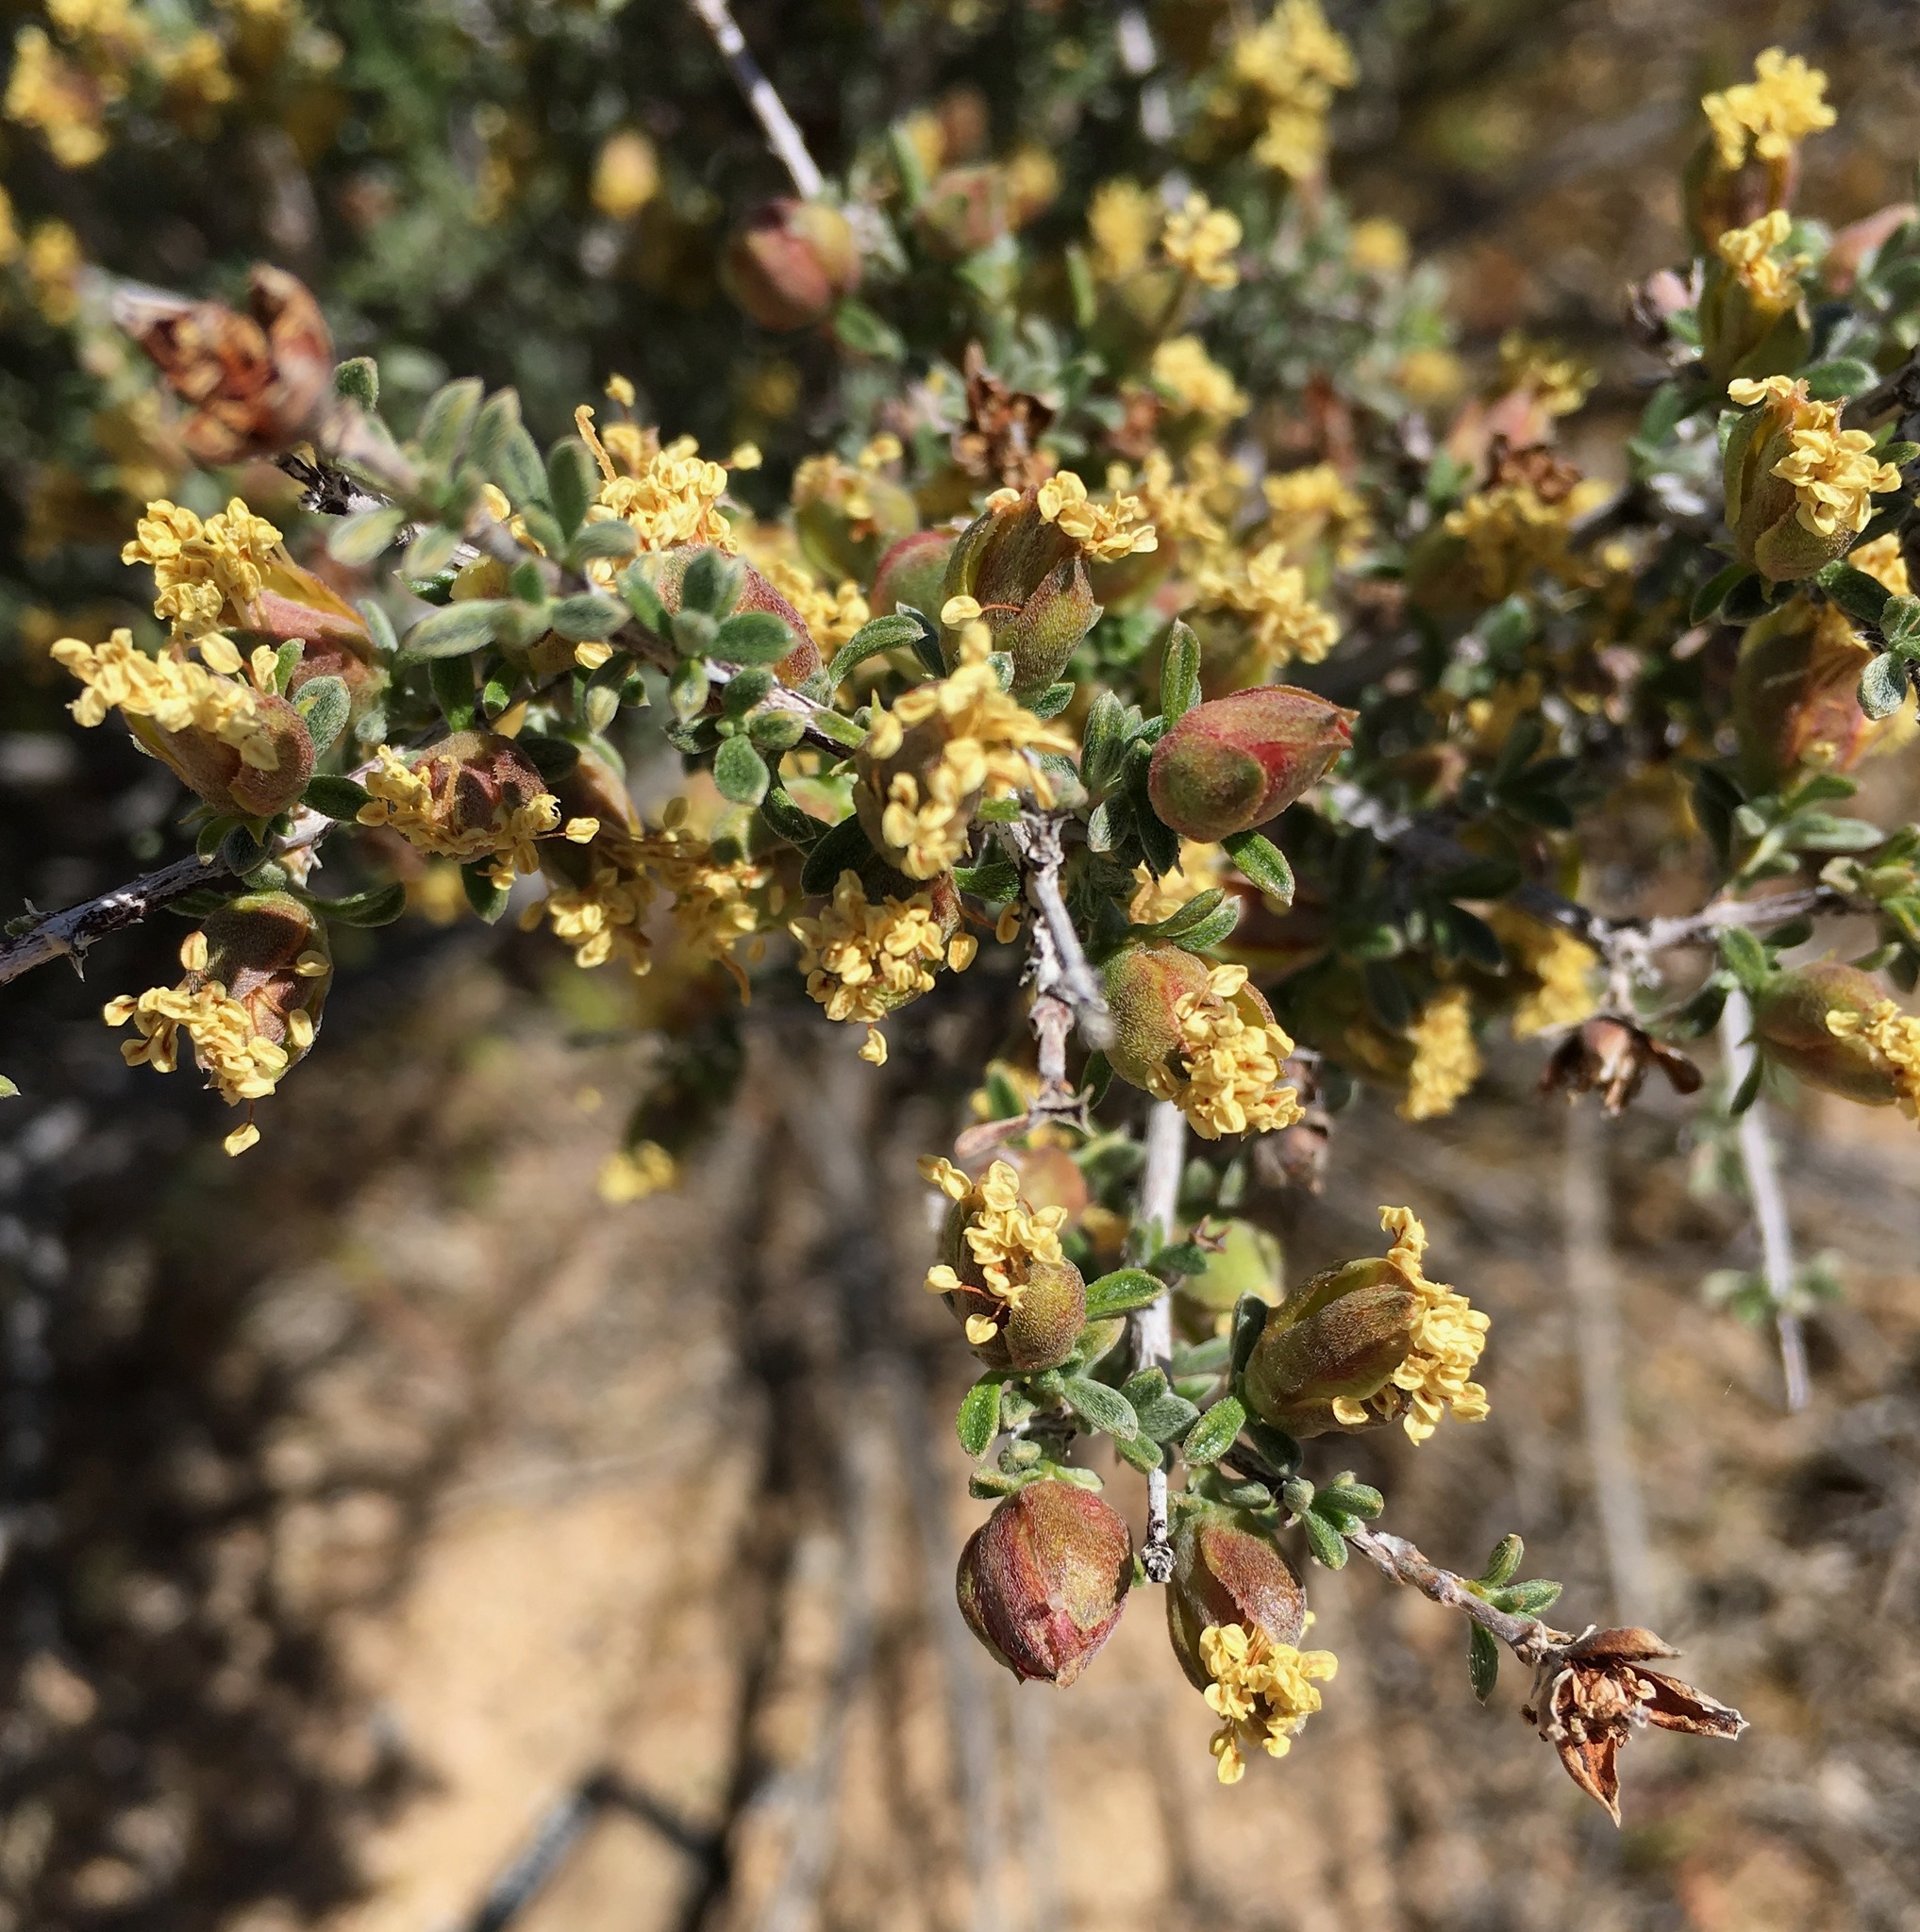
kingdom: Plantae
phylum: Tracheophyta
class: Magnoliopsida
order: Rosales
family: Rosaceae
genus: Coleogyne
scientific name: Coleogyne ramosissima
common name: Blackbrush
